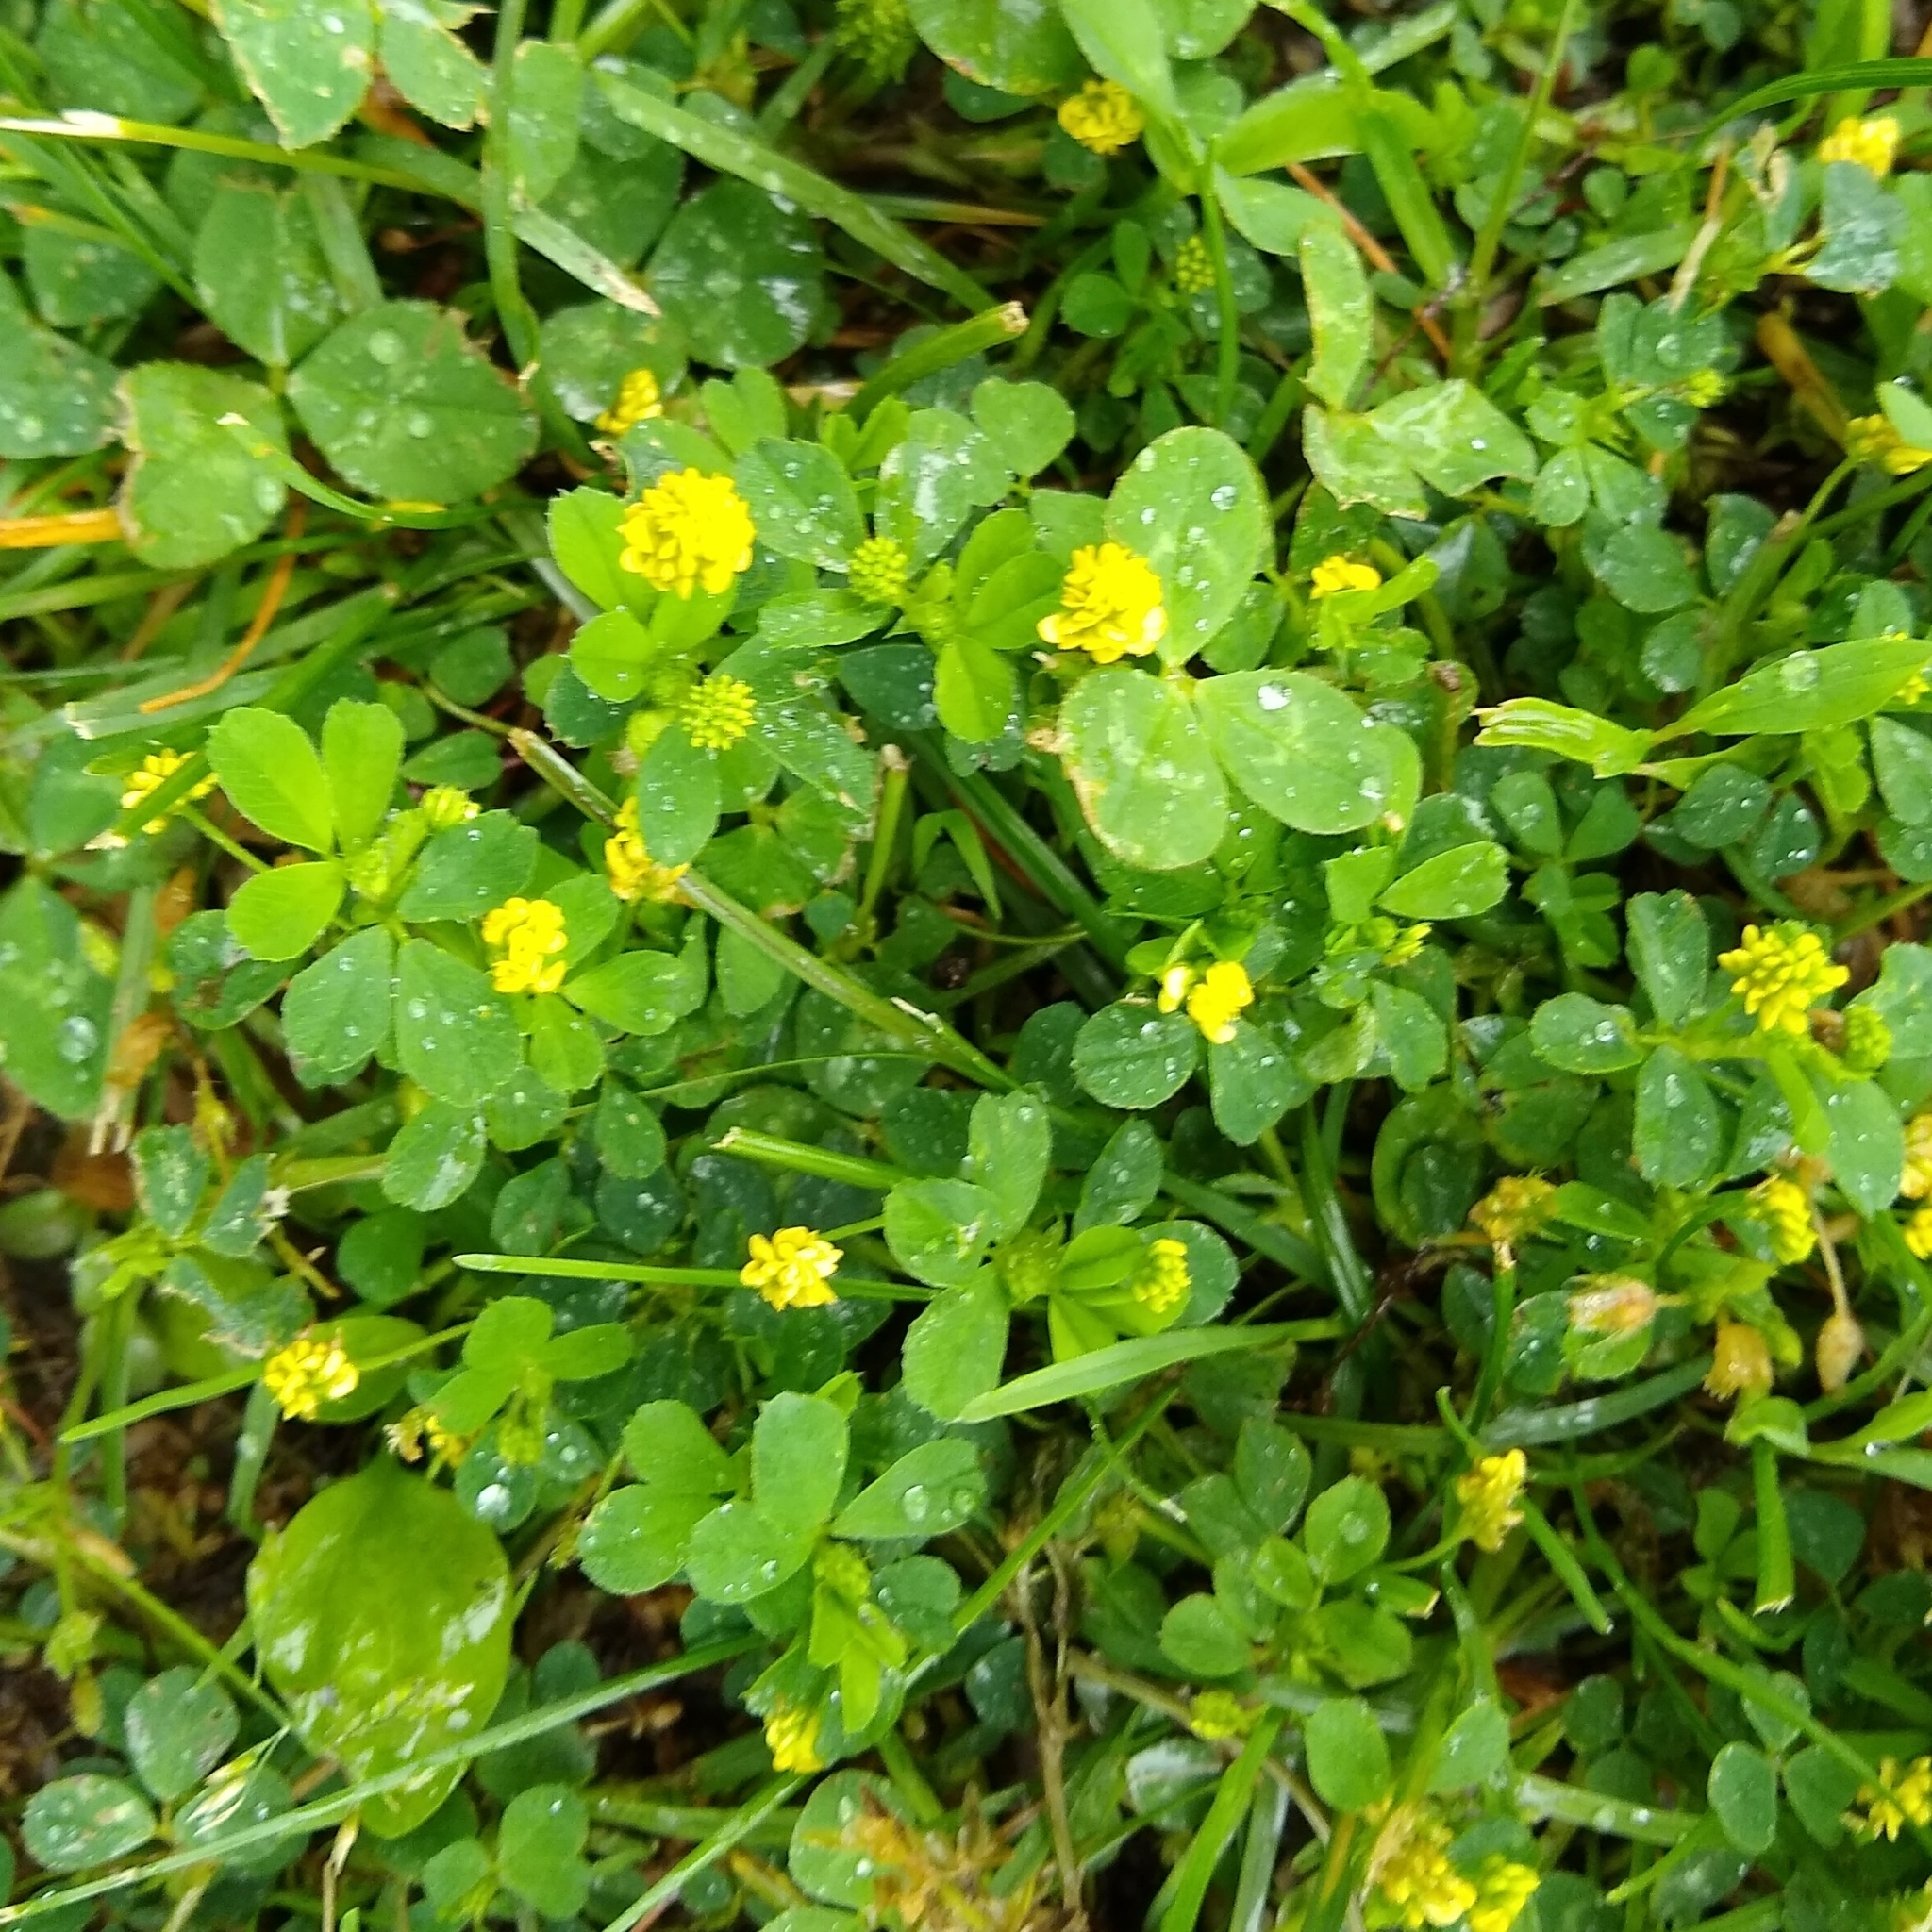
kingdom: Plantae
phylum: Tracheophyta
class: Magnoliopsida
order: Fabales
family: Fabaceae
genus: Medicago
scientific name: Medicago lupulina
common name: Black medick
